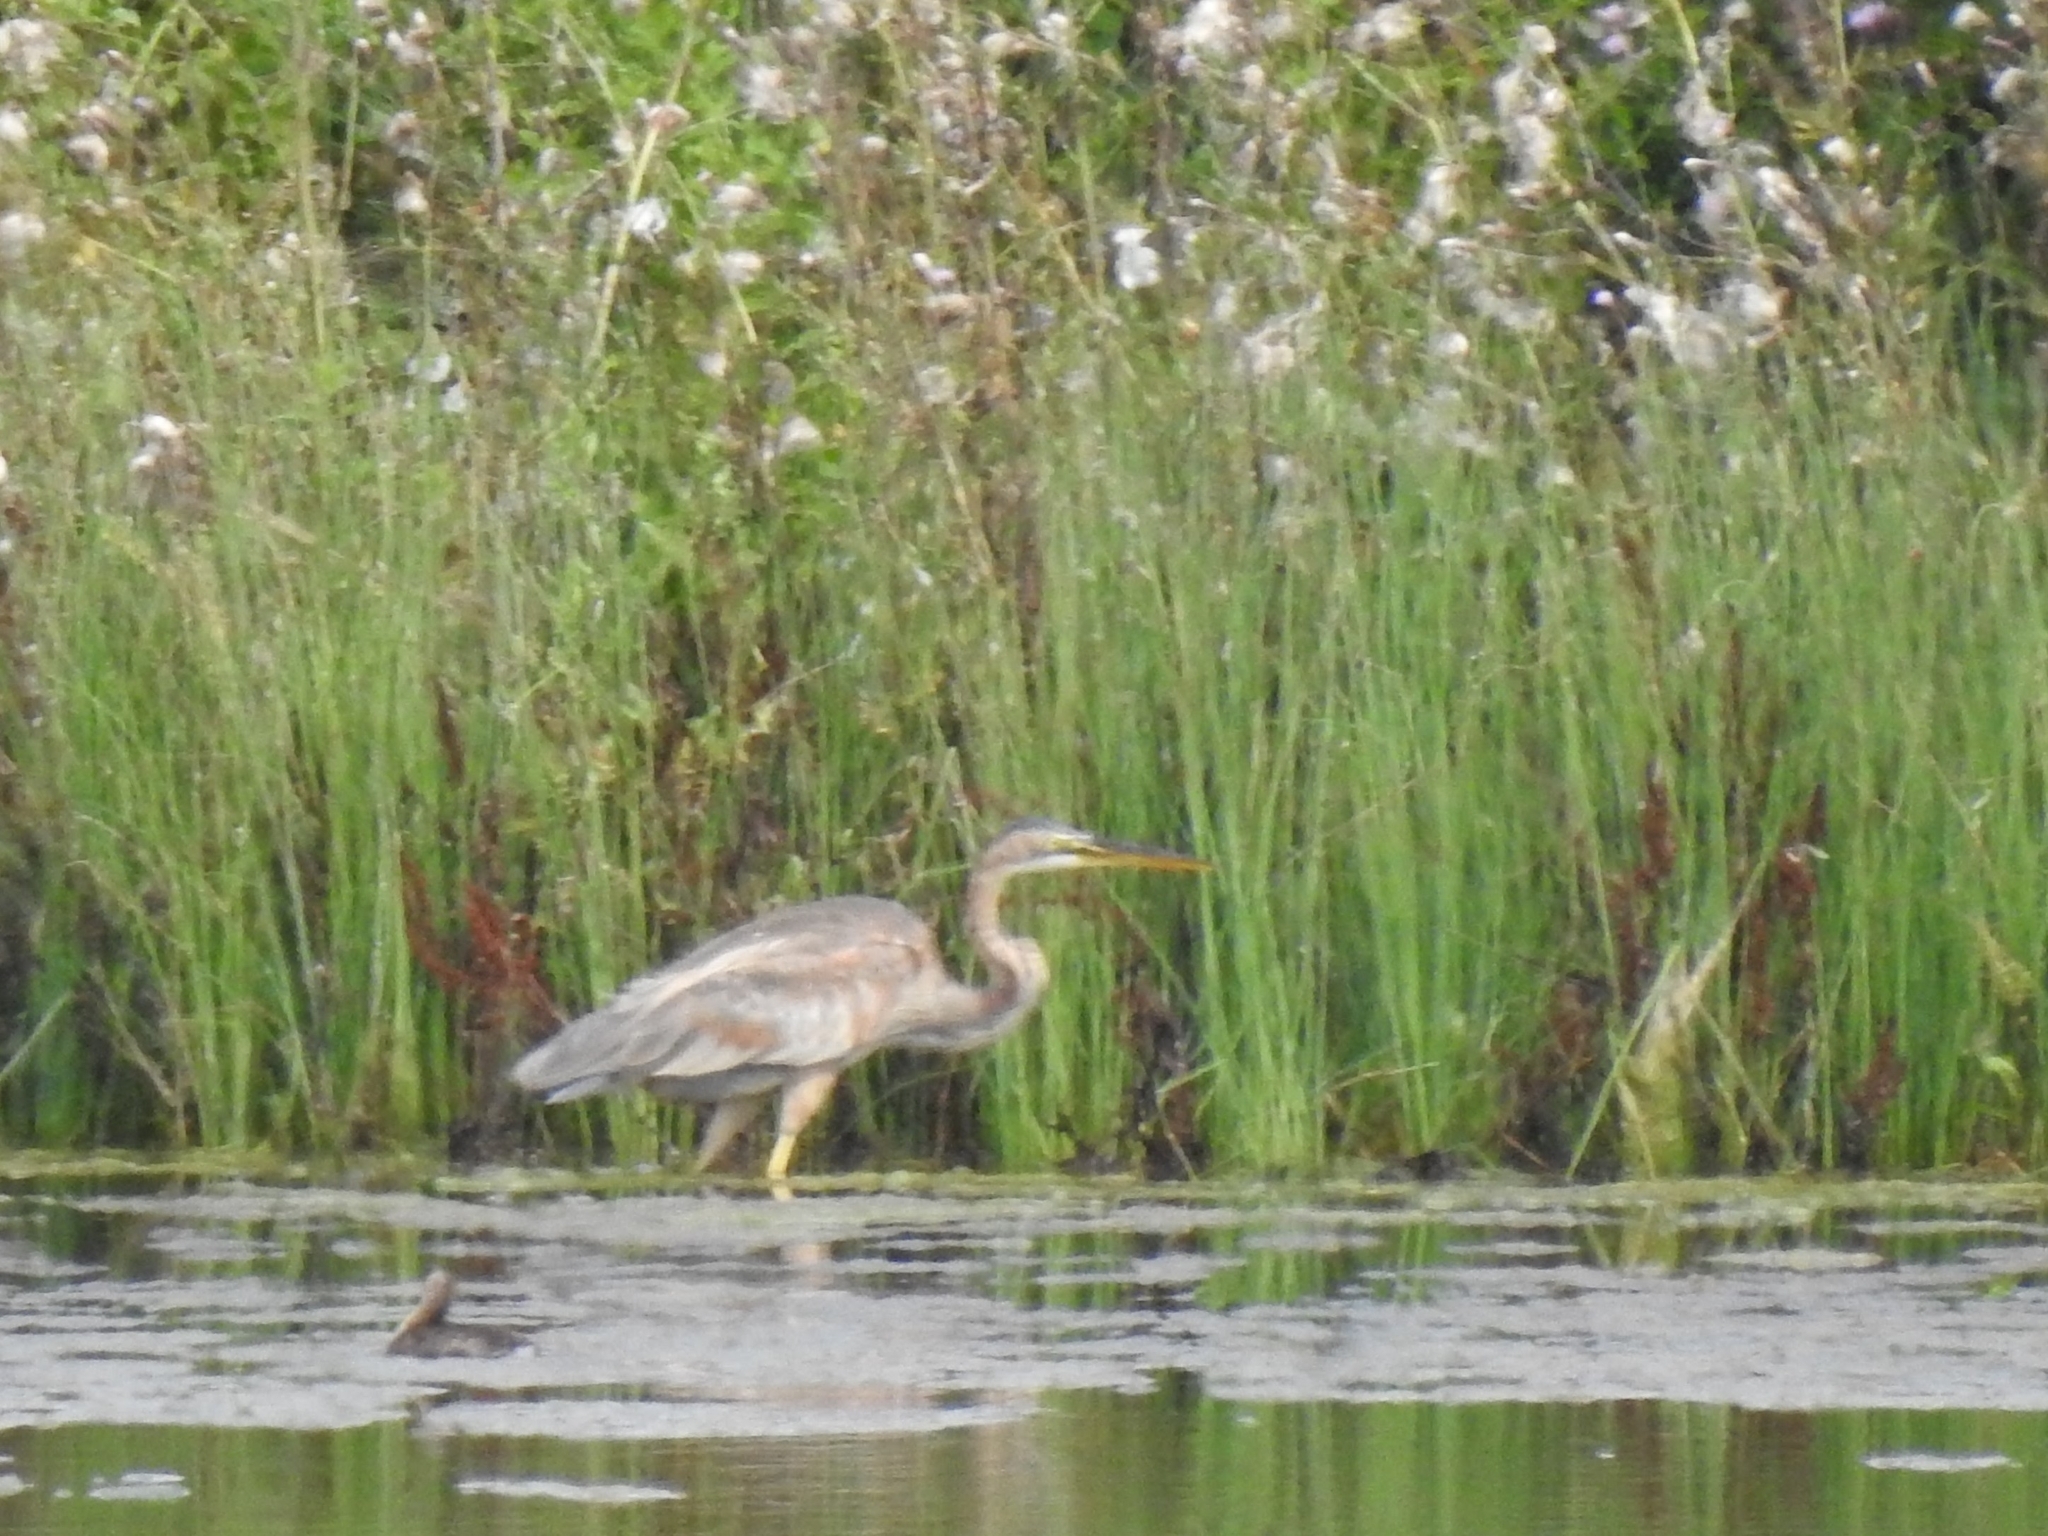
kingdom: Animalia
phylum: Chordata
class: Aves
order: Pelecaniformes
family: Ardeidae
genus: Ardea
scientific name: Ardea purpurea
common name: Purple heron
